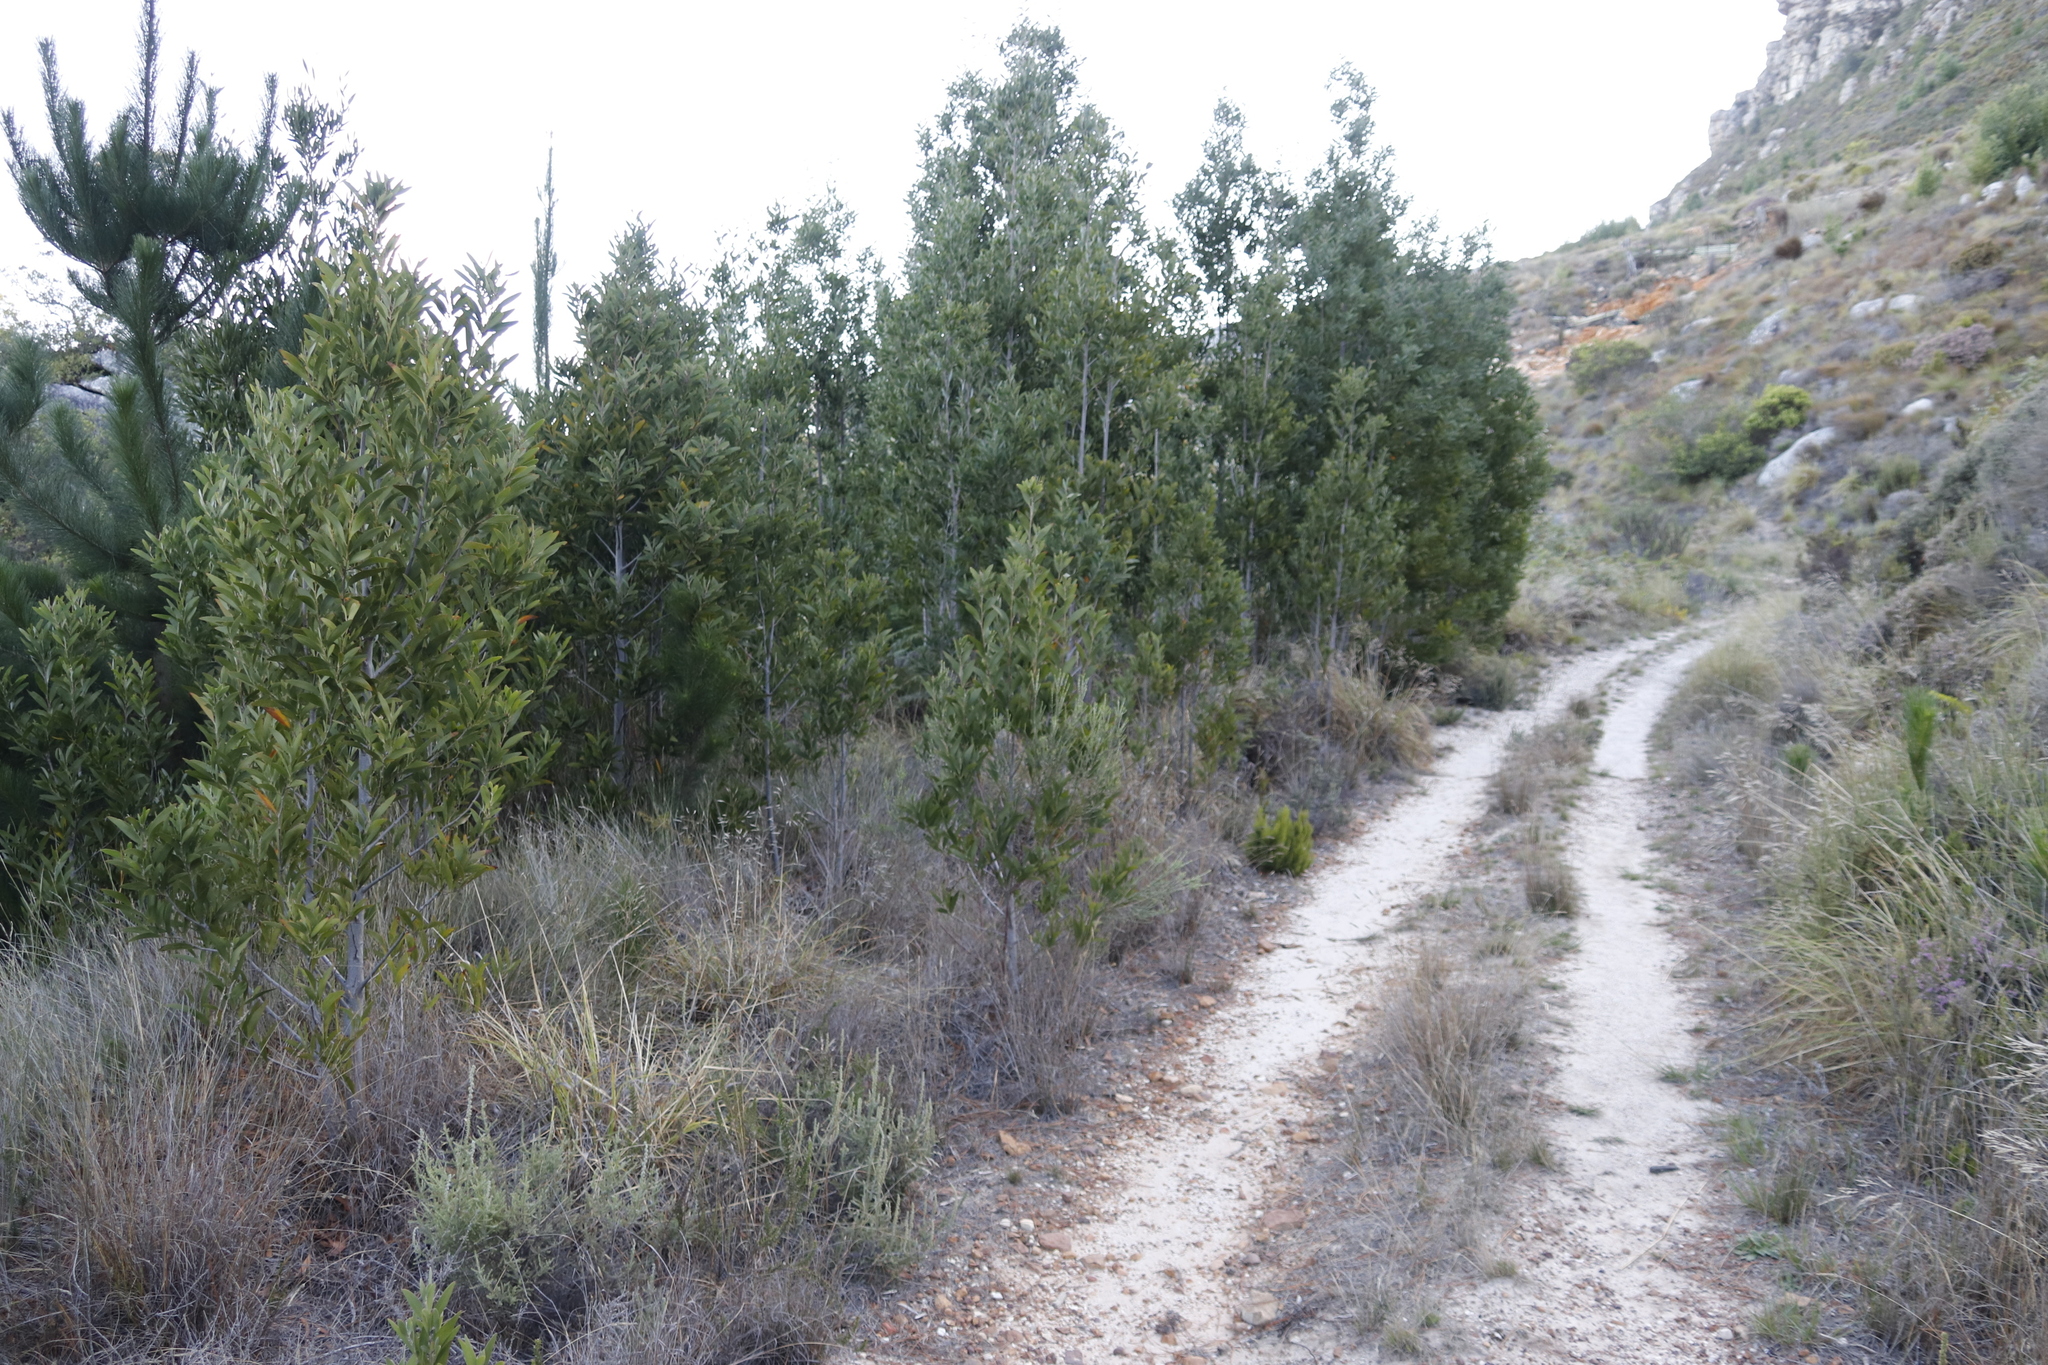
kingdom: Plantae
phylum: Tracheophyta
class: Magnoliopsida
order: Fabales
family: Fabaceae
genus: Acacia
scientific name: Acacia melanoxylon
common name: Blackwood
